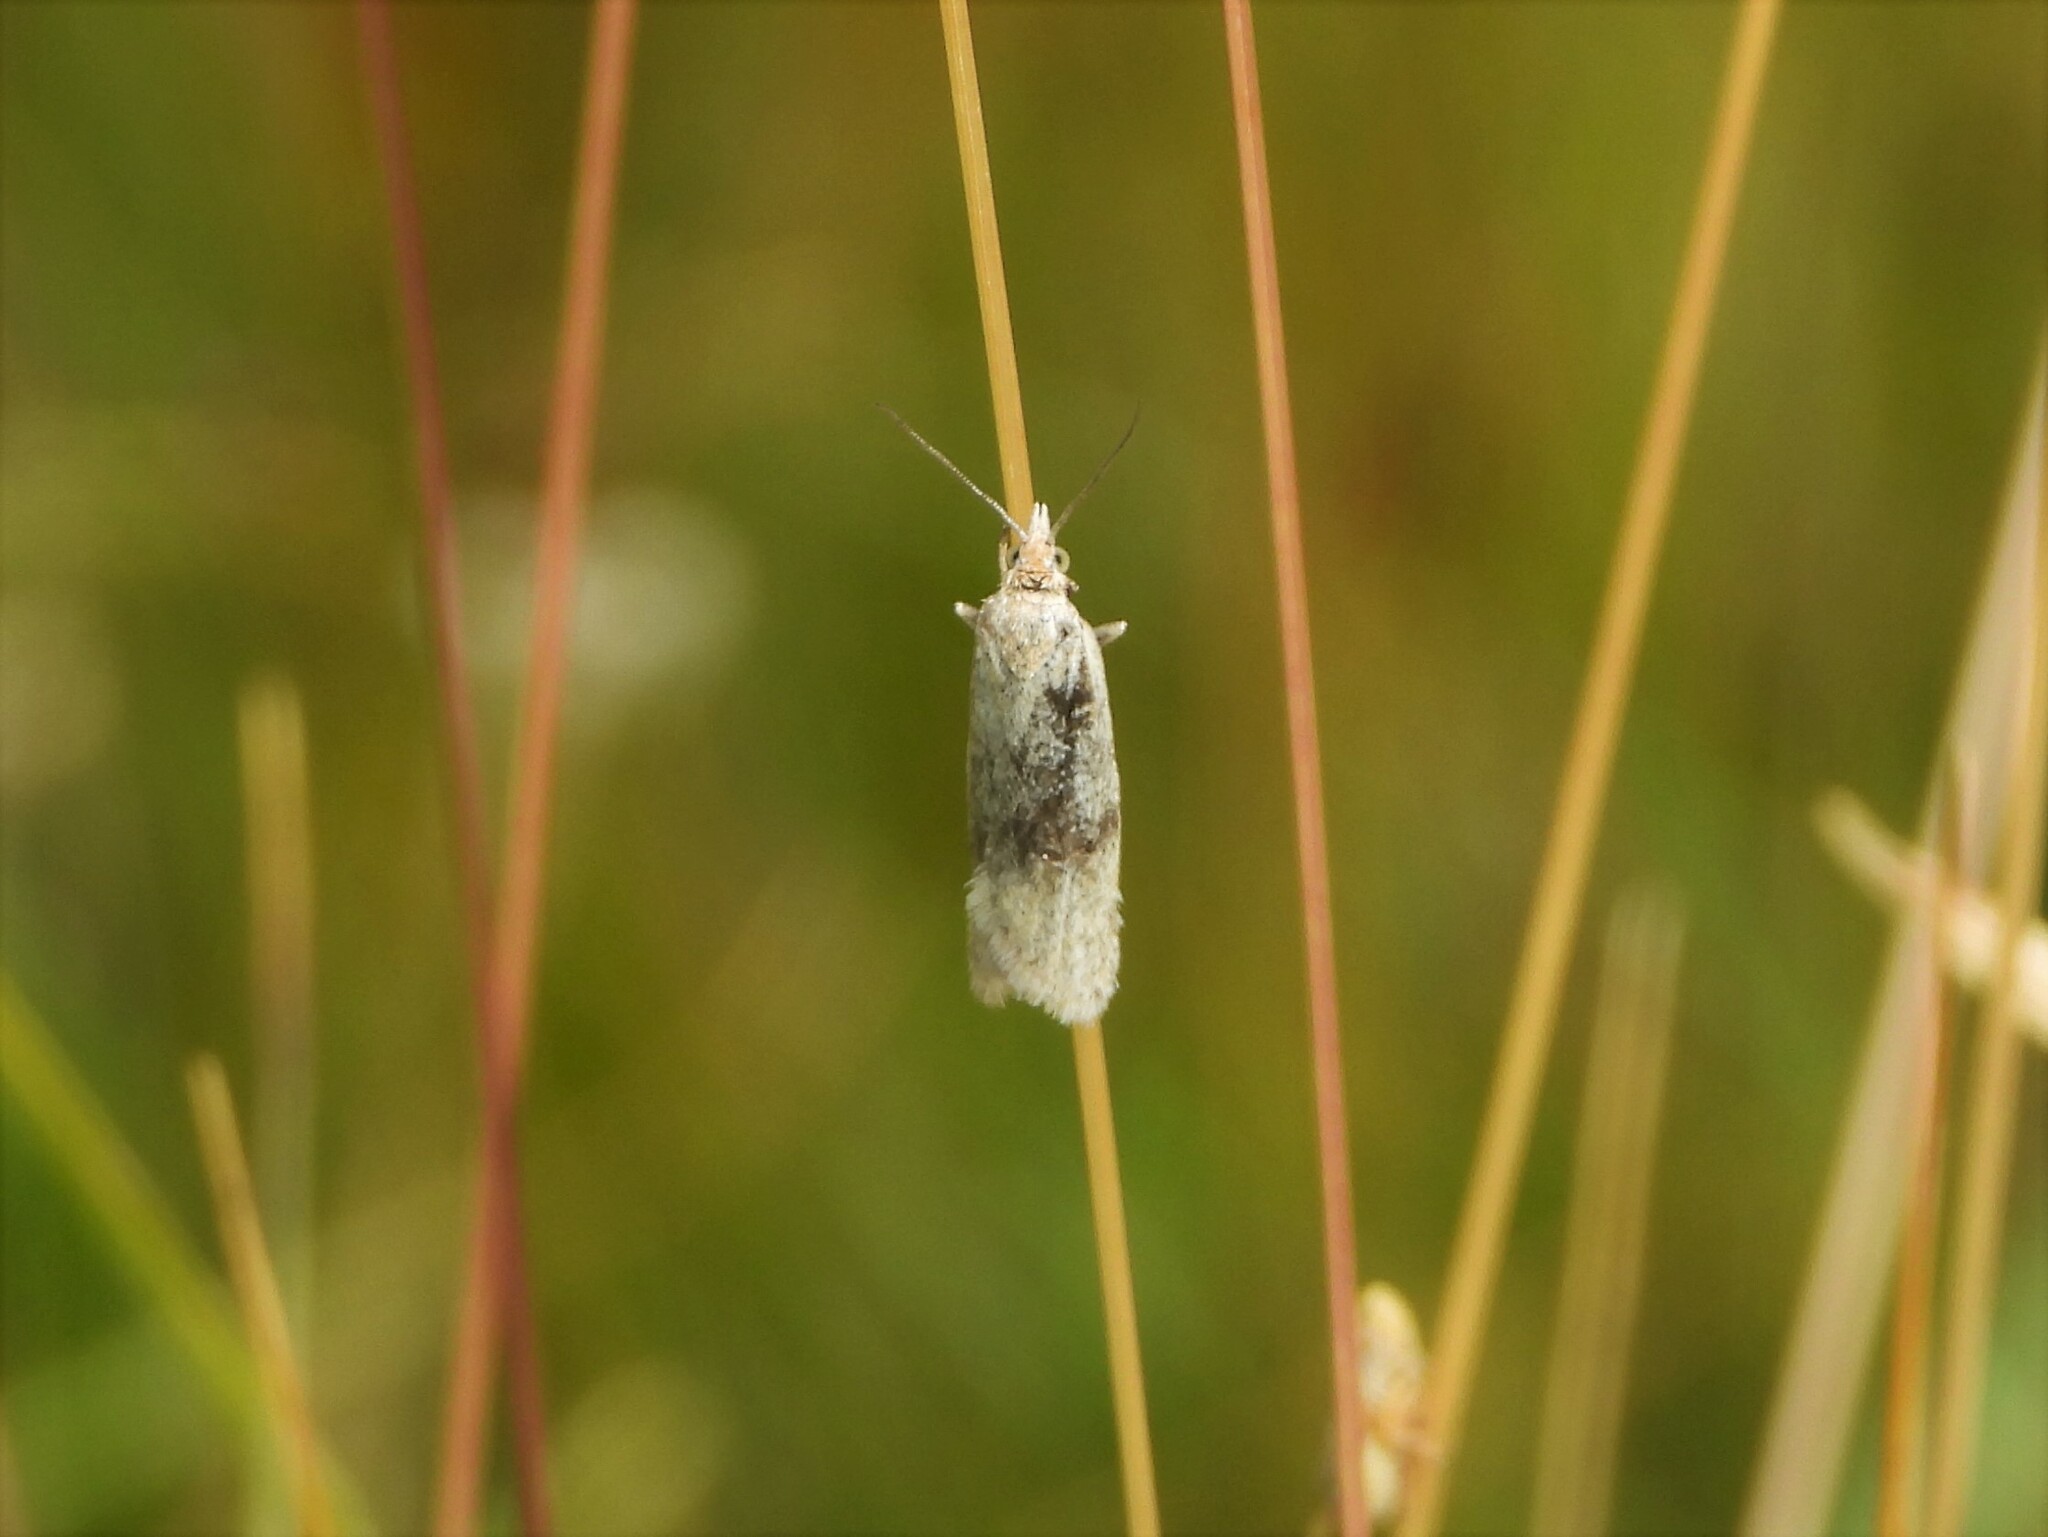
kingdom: Animalia
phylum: Arthropoda
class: Insecta
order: Lepidoptera
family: Tortricidae
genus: Eana
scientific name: Eana argentana
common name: Silver shade
